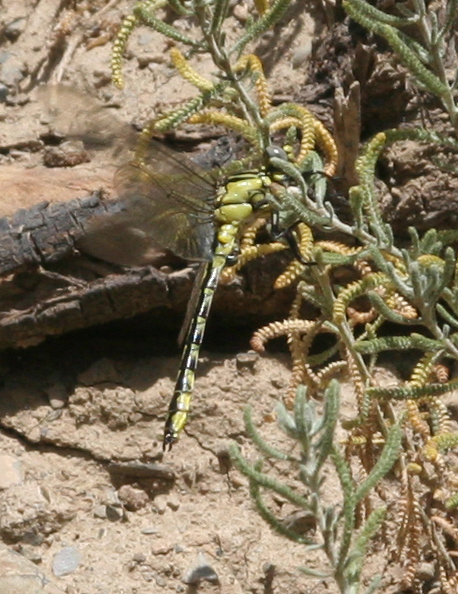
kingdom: Animalia
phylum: Arthropoda
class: Insecta
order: Odonata
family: Gomphidae
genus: Gomphus
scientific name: Gomphus schneiderii
